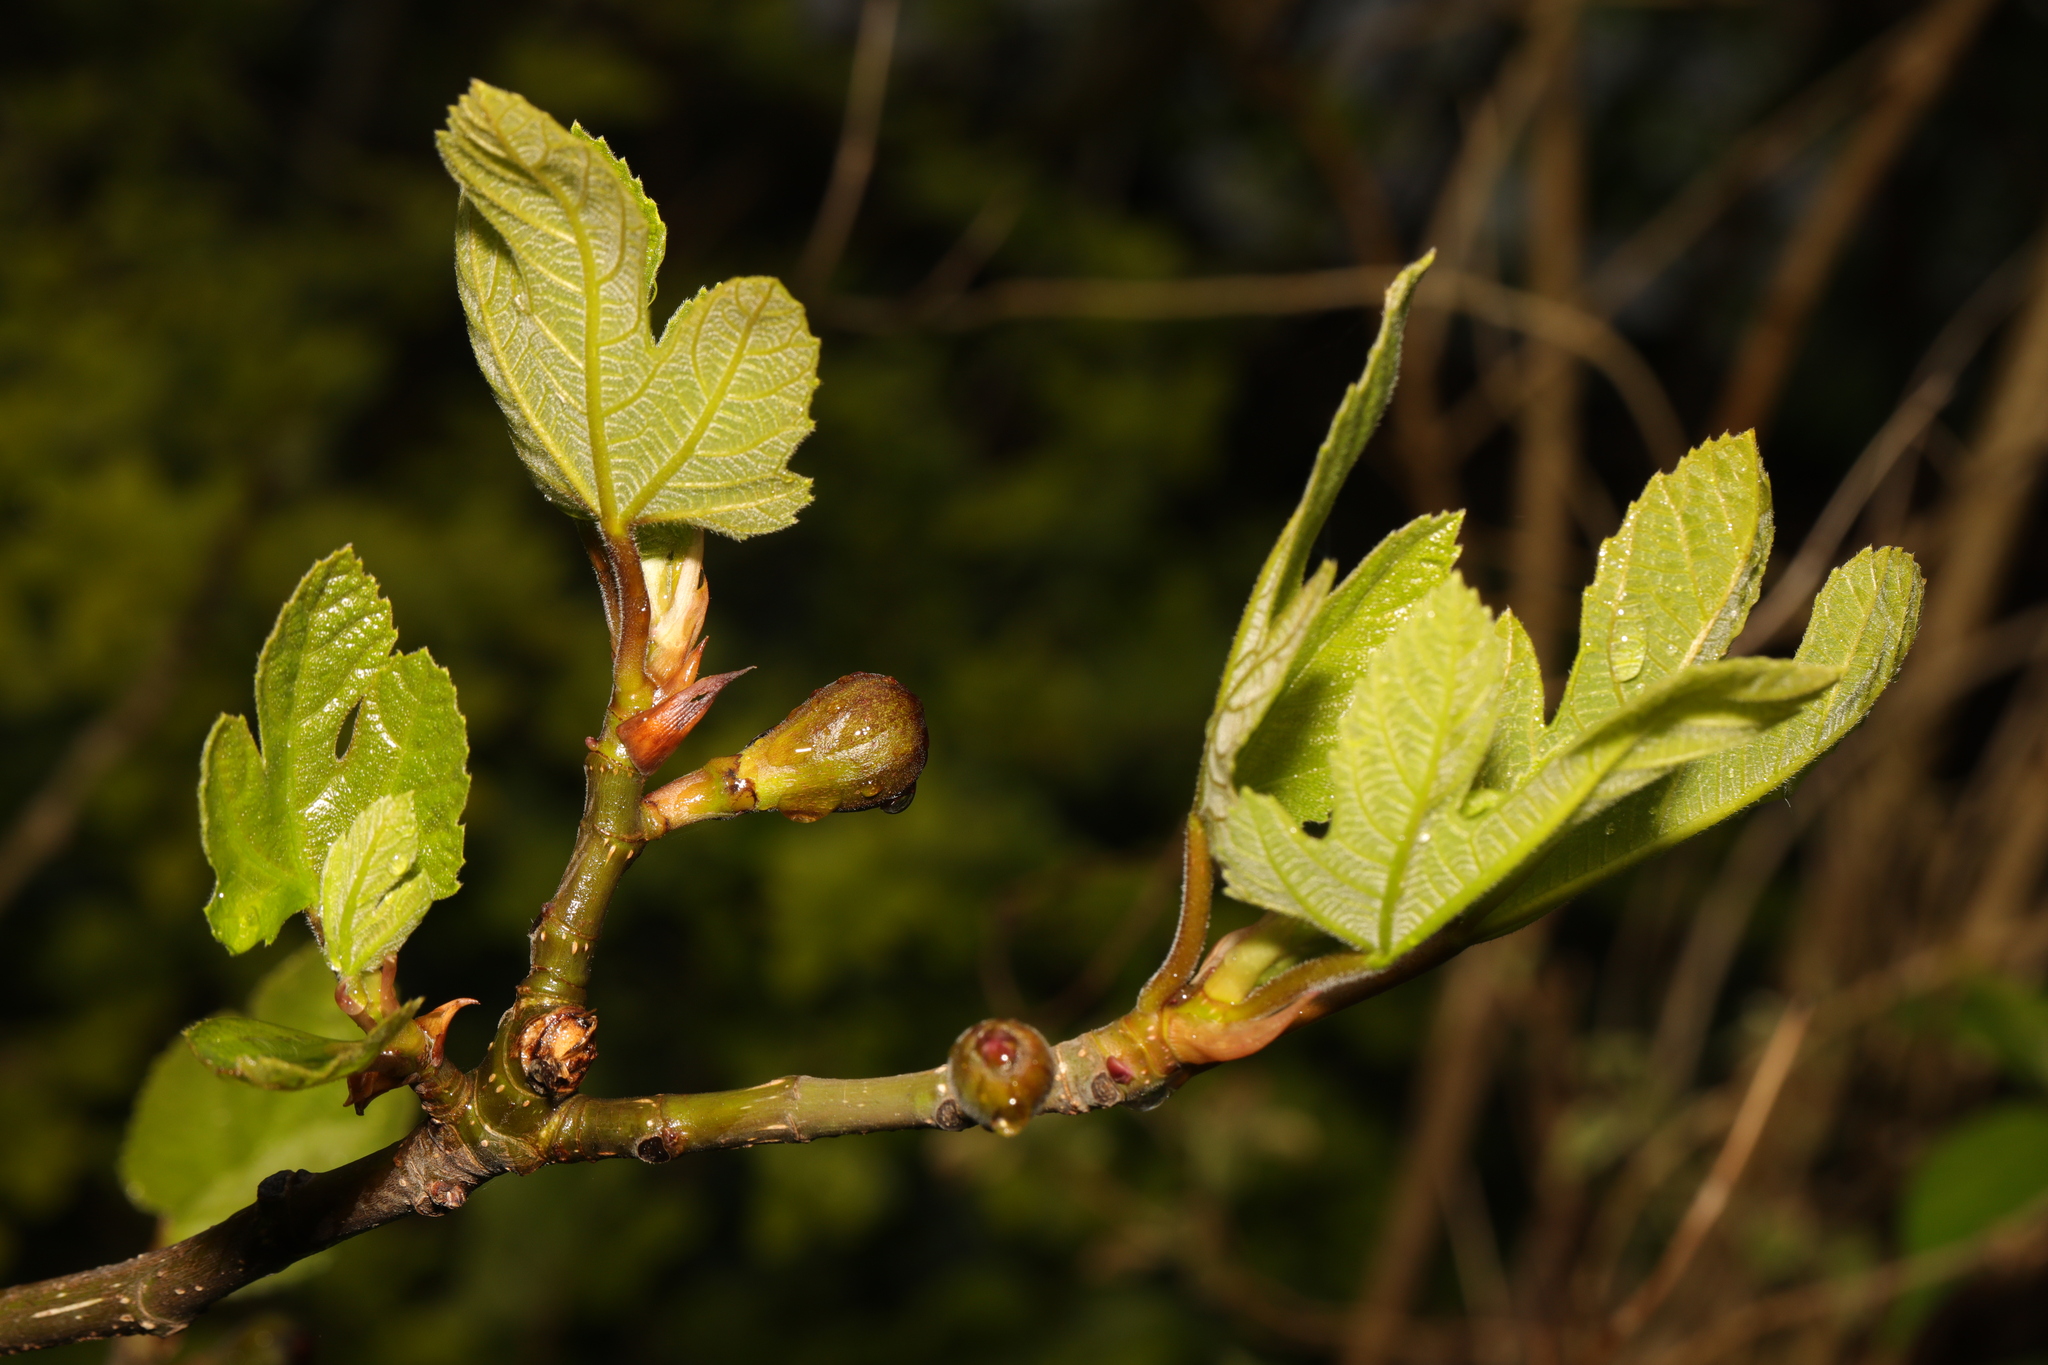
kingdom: Plantae
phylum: Tracheophyta
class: Magnoliopsida
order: Rosales
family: Moraceae
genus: Ficus
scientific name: Ficus carica
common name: Fig
